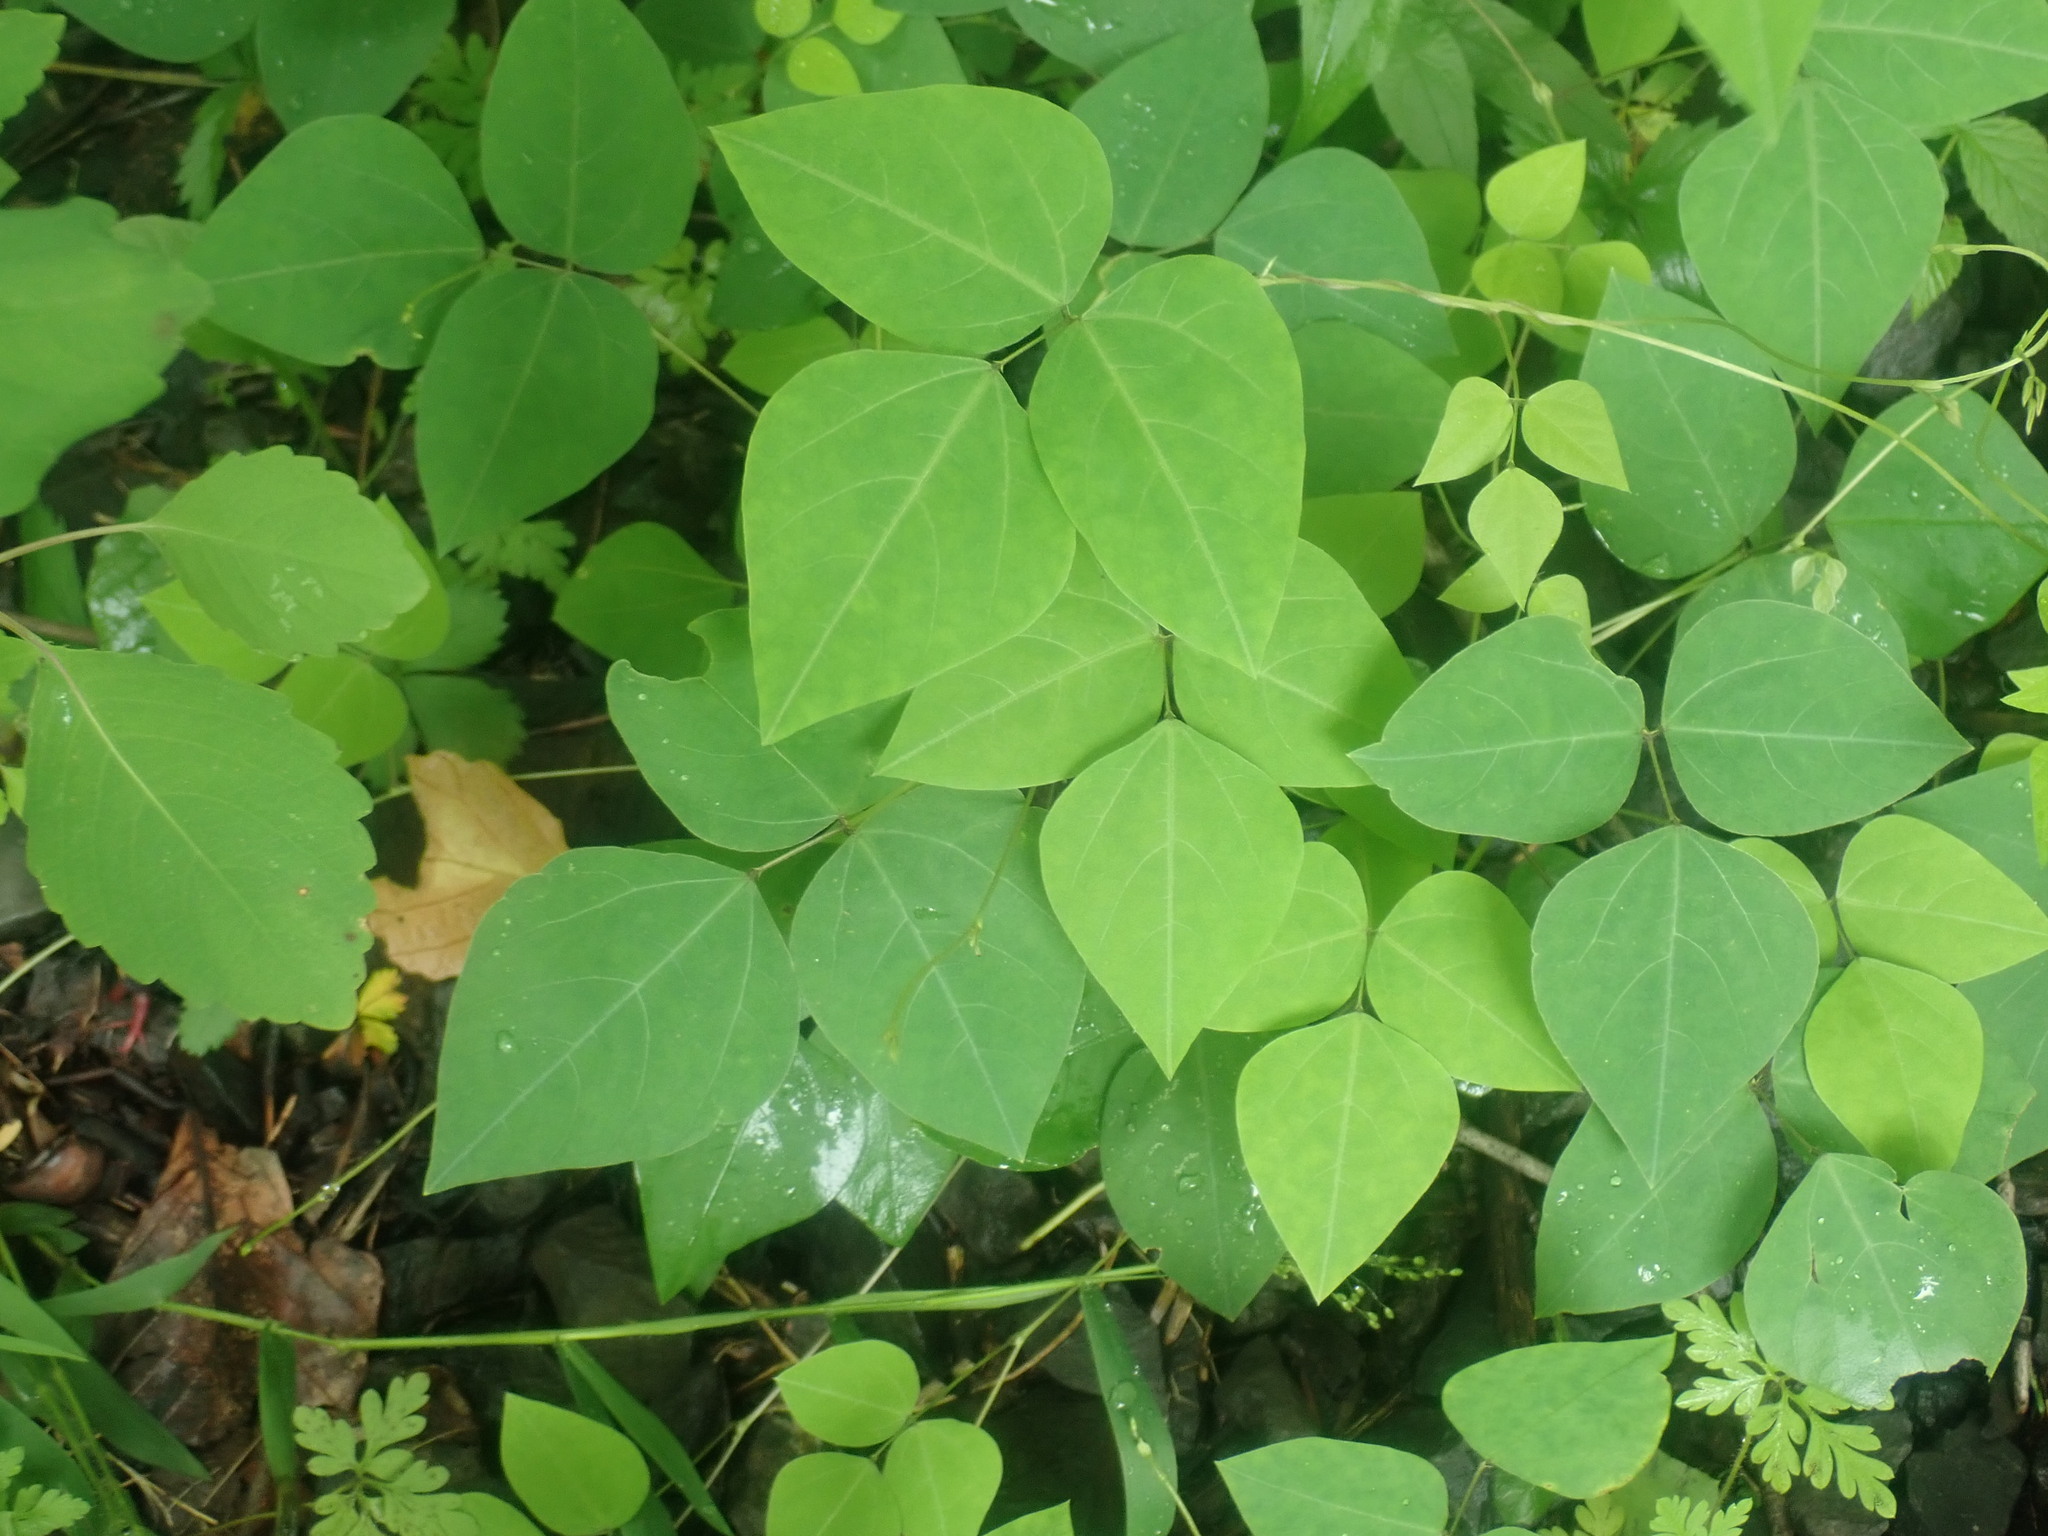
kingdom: Plantae
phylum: Tracheophyta
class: Magnoliopsida
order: Fabales
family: Fabaceae
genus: Amphicarpaea
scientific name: Amphicarpaea bracteata
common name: American hog peanut
